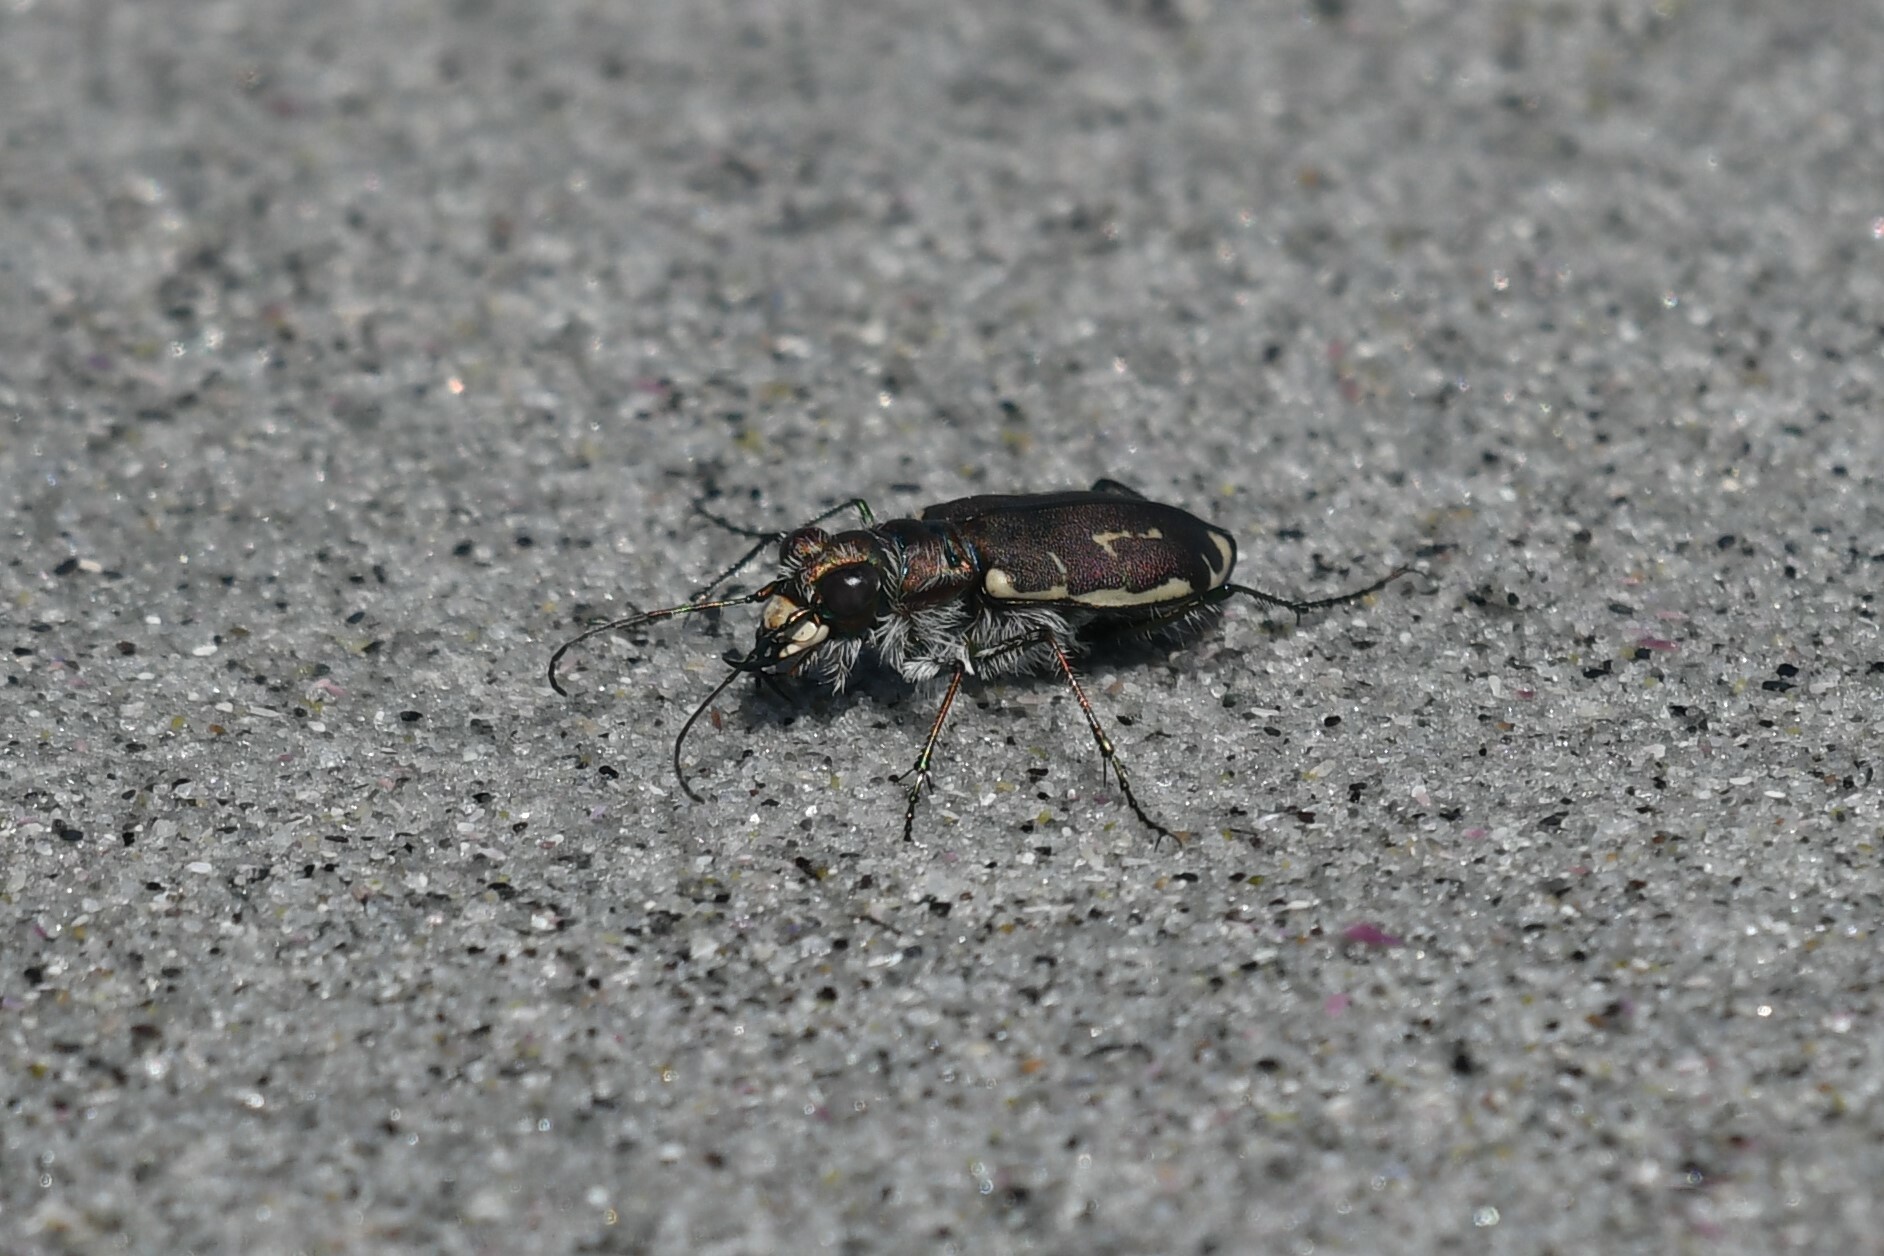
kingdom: Animalia
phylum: Arthropoda
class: Insecta
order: Coleoptera
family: Carabidae
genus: Cicindela
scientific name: Cicindela hirticollis
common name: Hairy-necked tiger beetle
